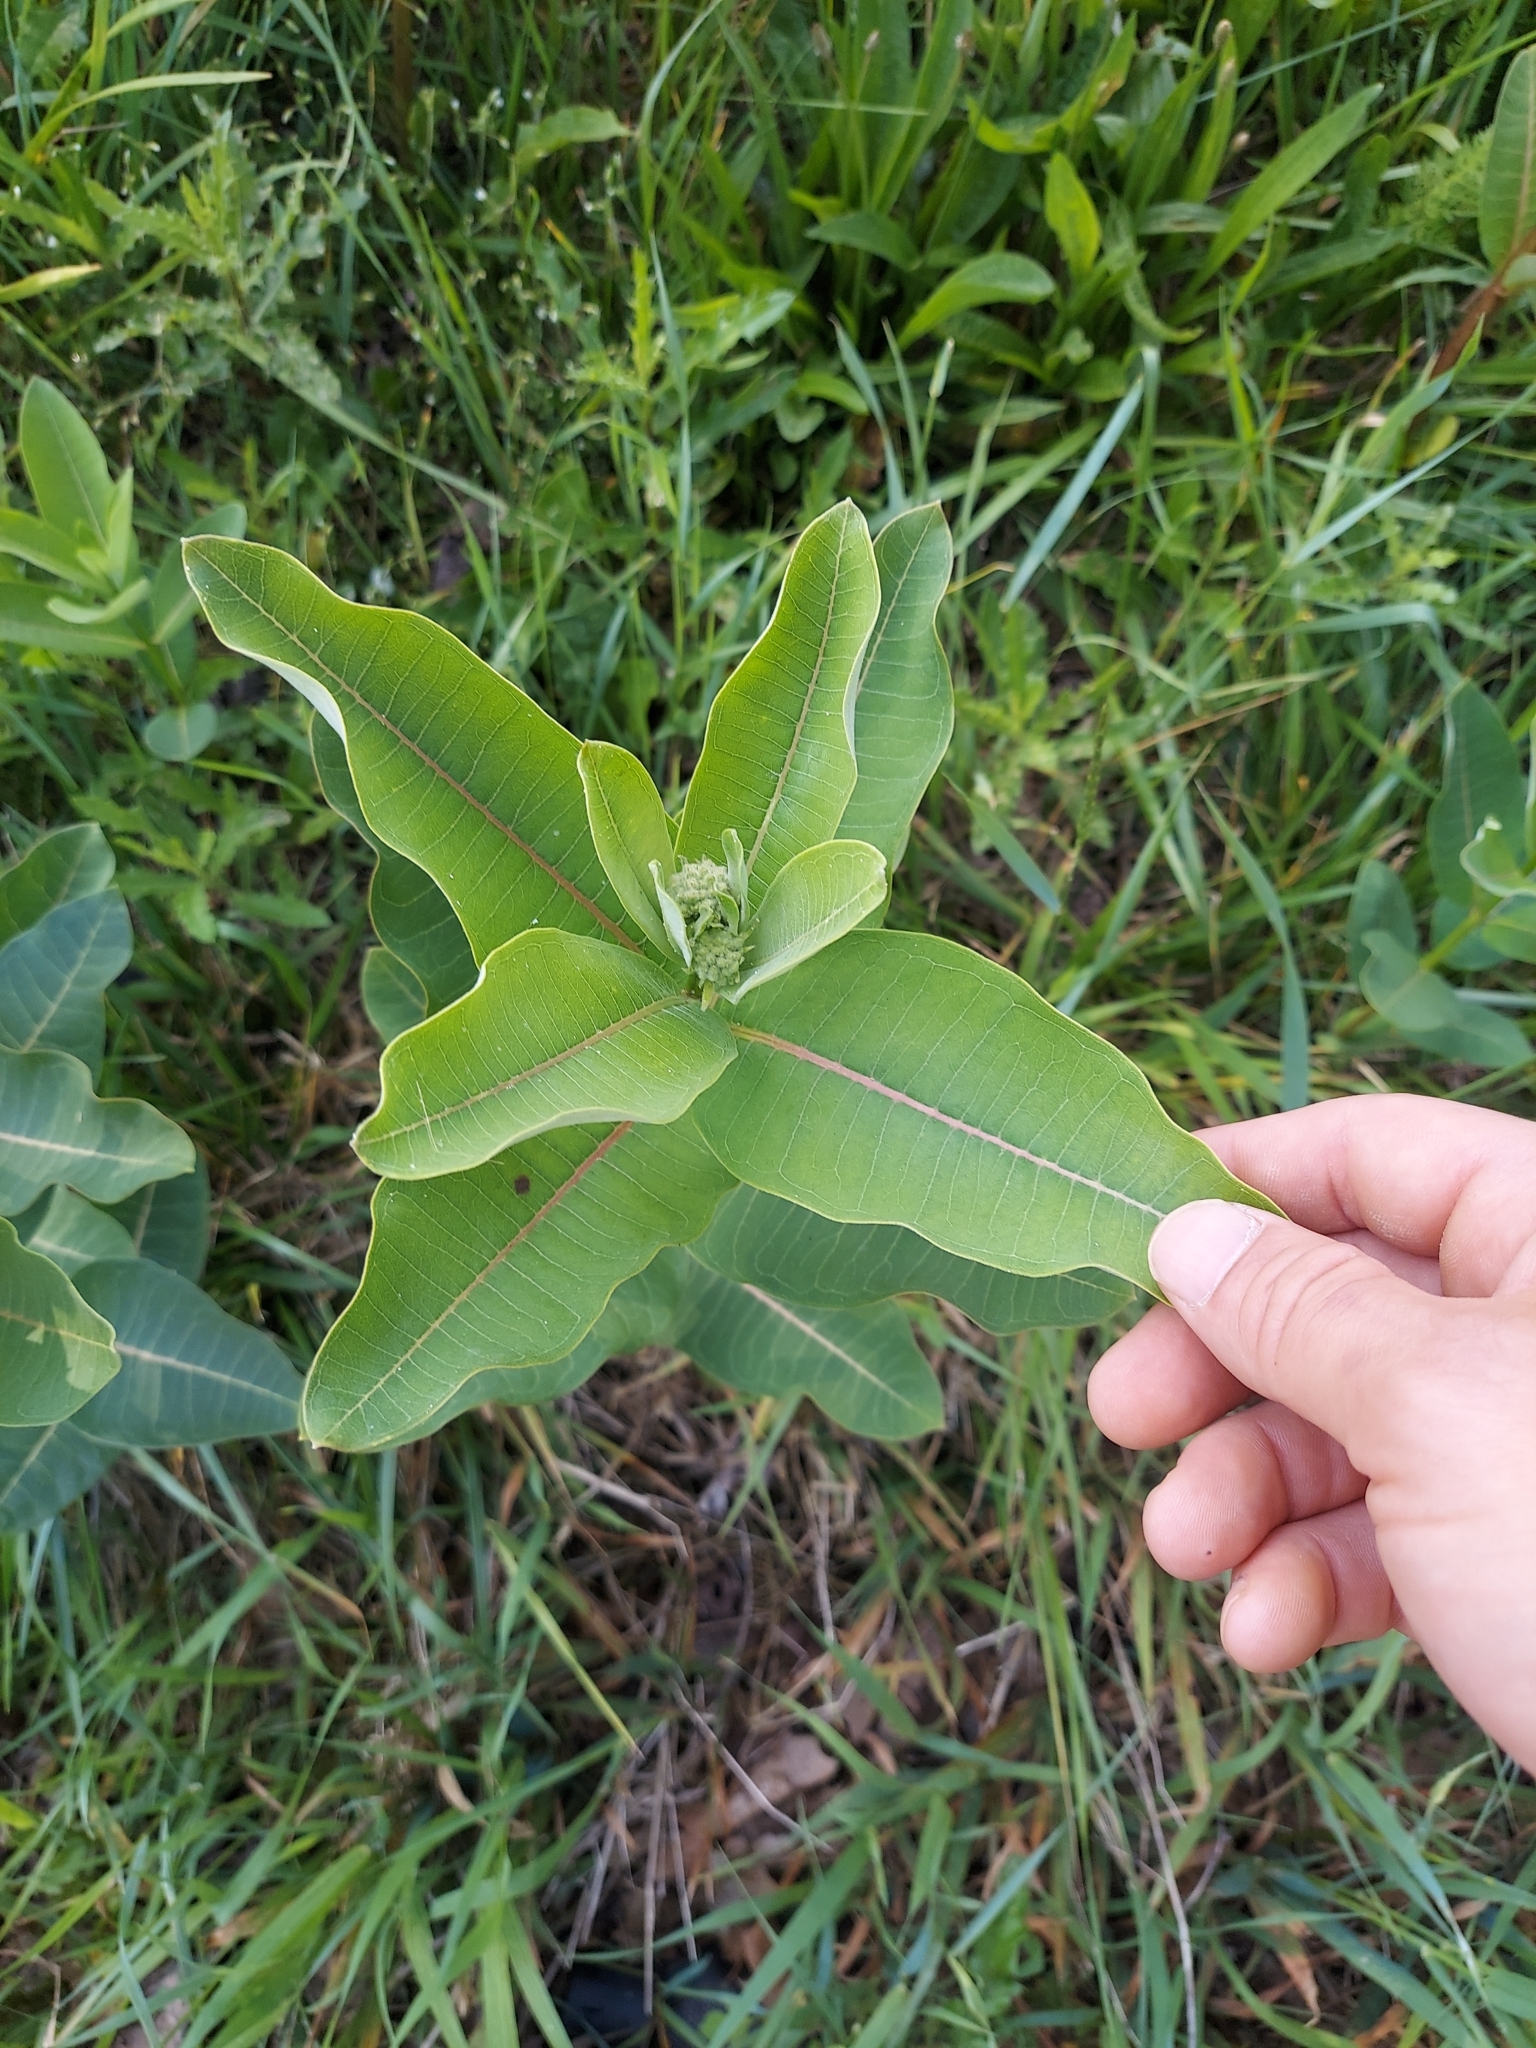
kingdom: Plantae
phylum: Tracheophyta
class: Magnoliopsida
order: Gentianales
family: Apocynaceae
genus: Asclepias
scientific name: Asclepias syriaca
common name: Common milkweed
